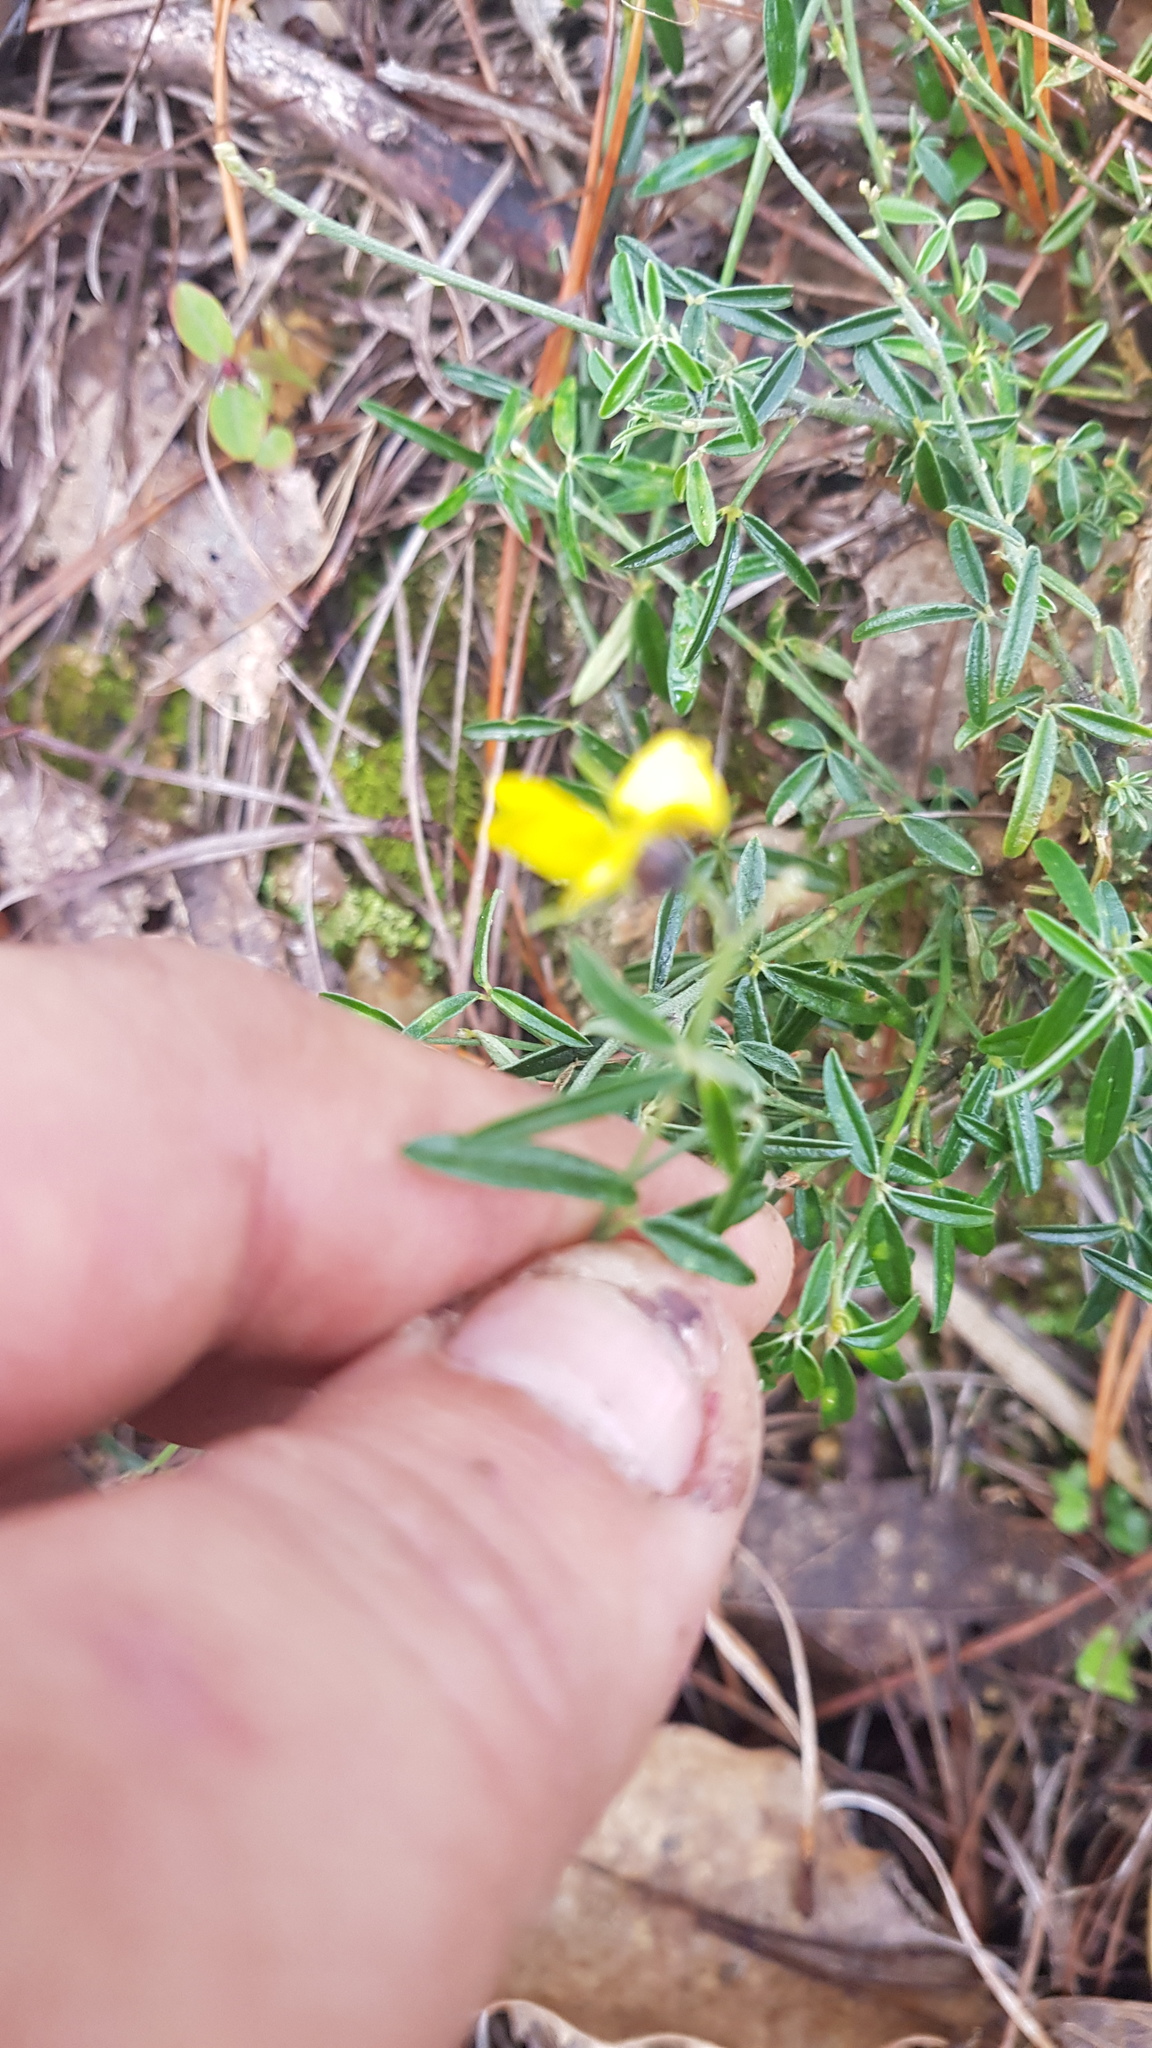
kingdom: Plantae
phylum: Tracheophyta
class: Magnoliopsida
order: Fabales
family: Fabaceae
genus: Crotalaria
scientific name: Crotalaria mollicula
